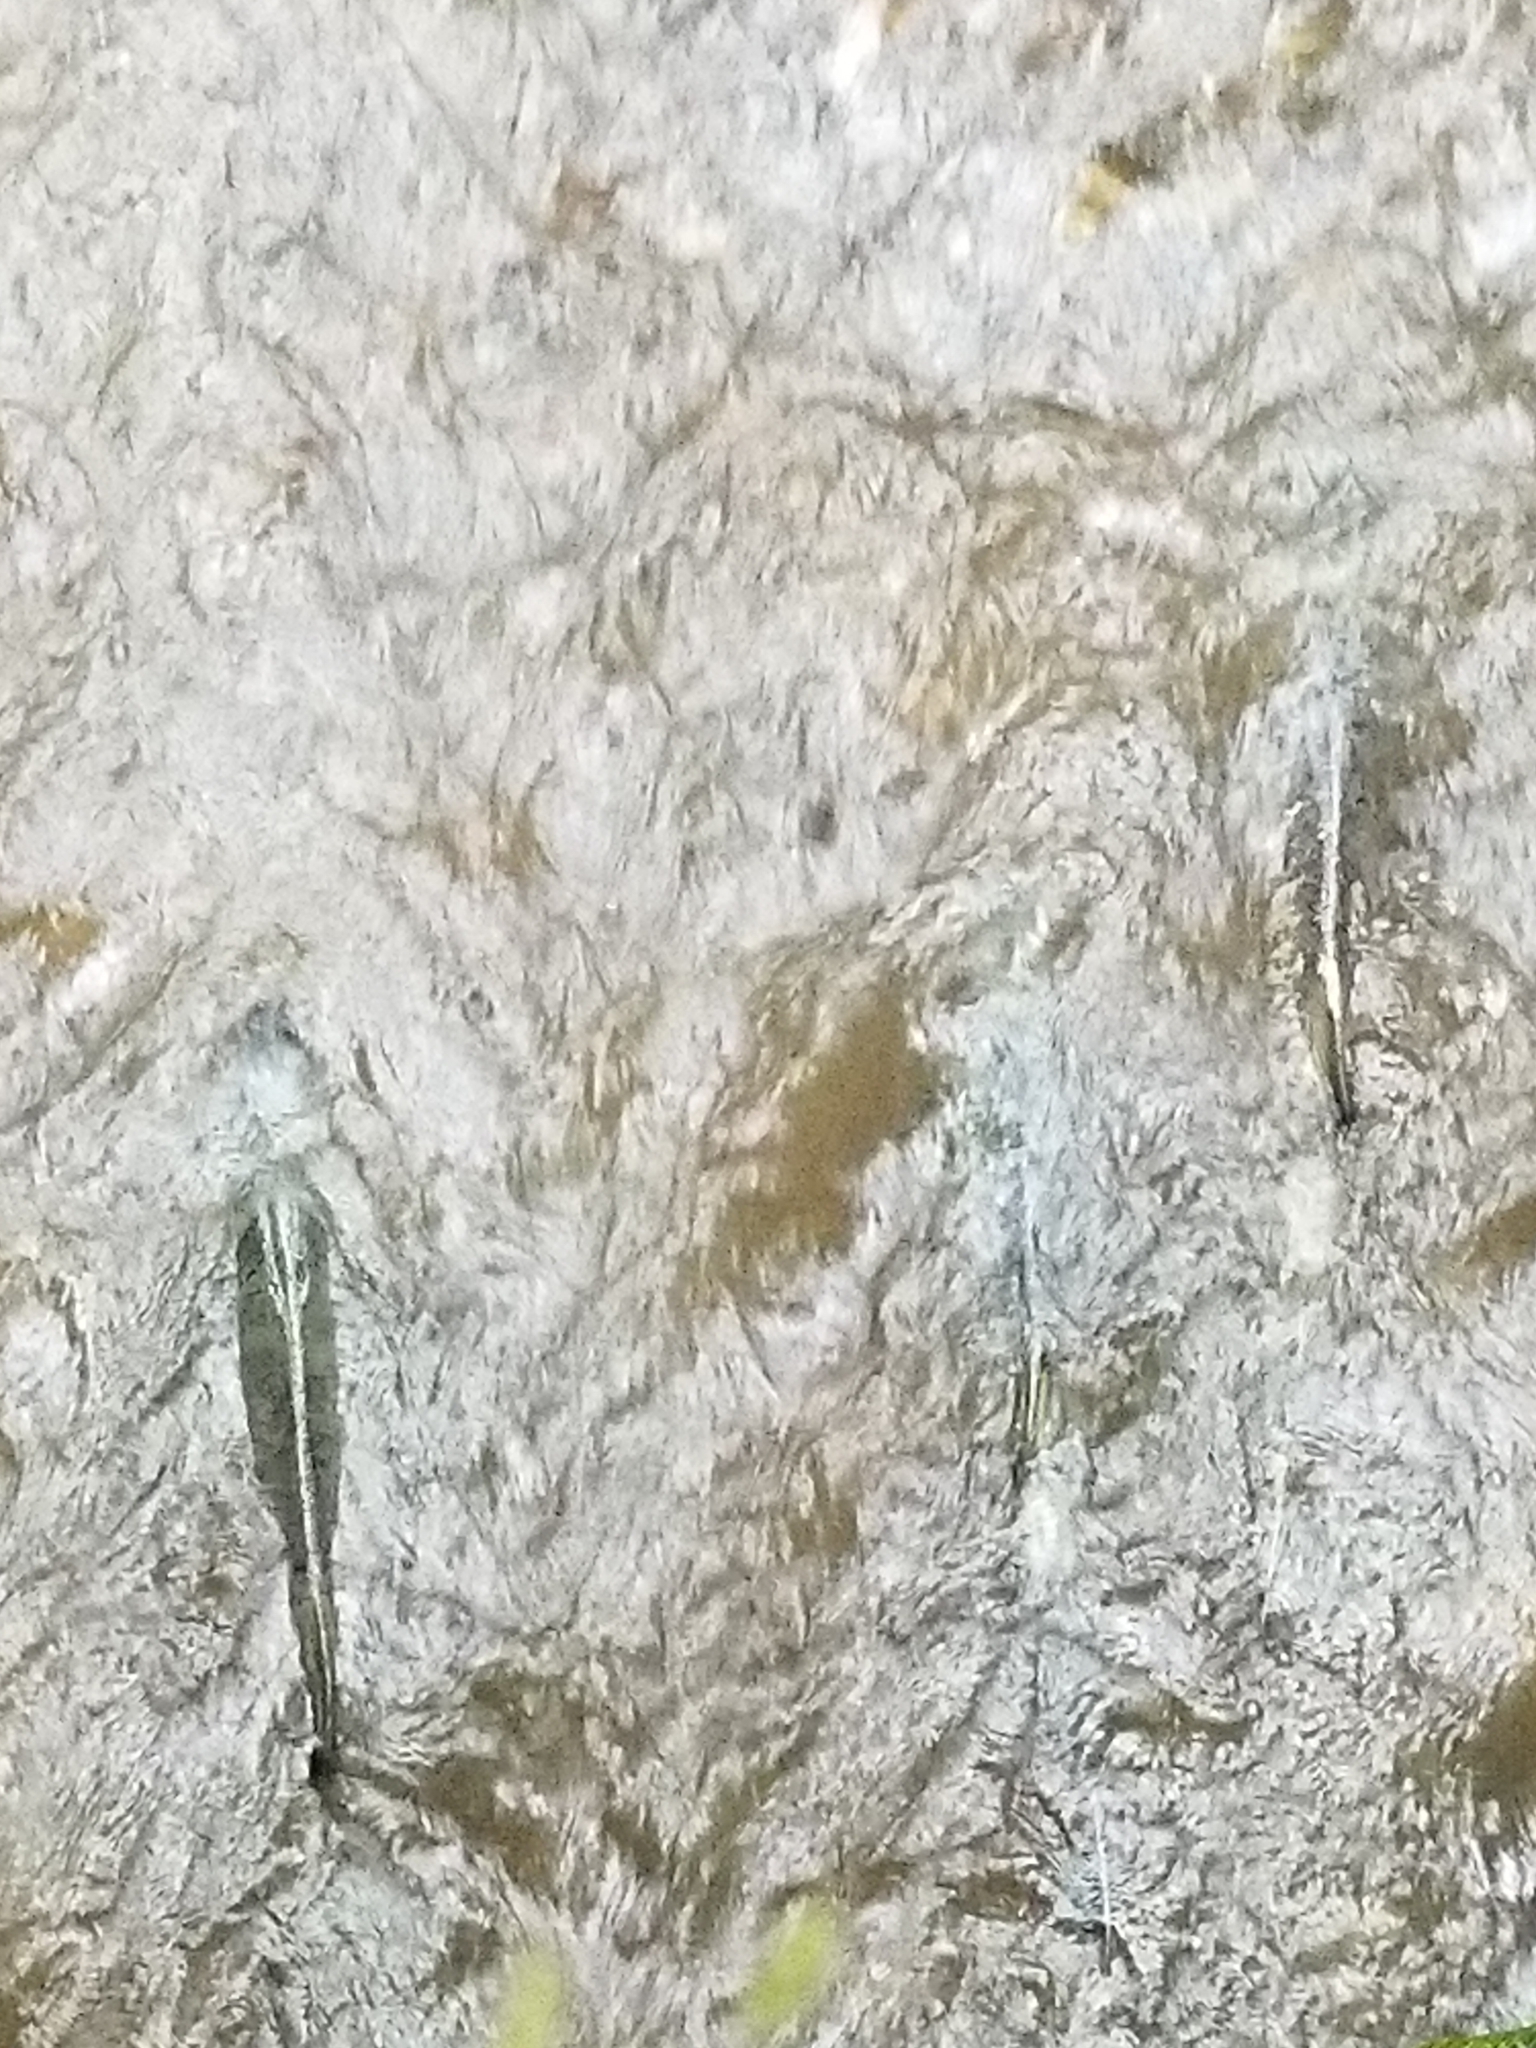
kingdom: Animalia
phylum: Chordata
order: Salmoniformes
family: Salmonidae
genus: Oncorhynchus
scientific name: Oncorhynchus keta
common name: Chum salmon
